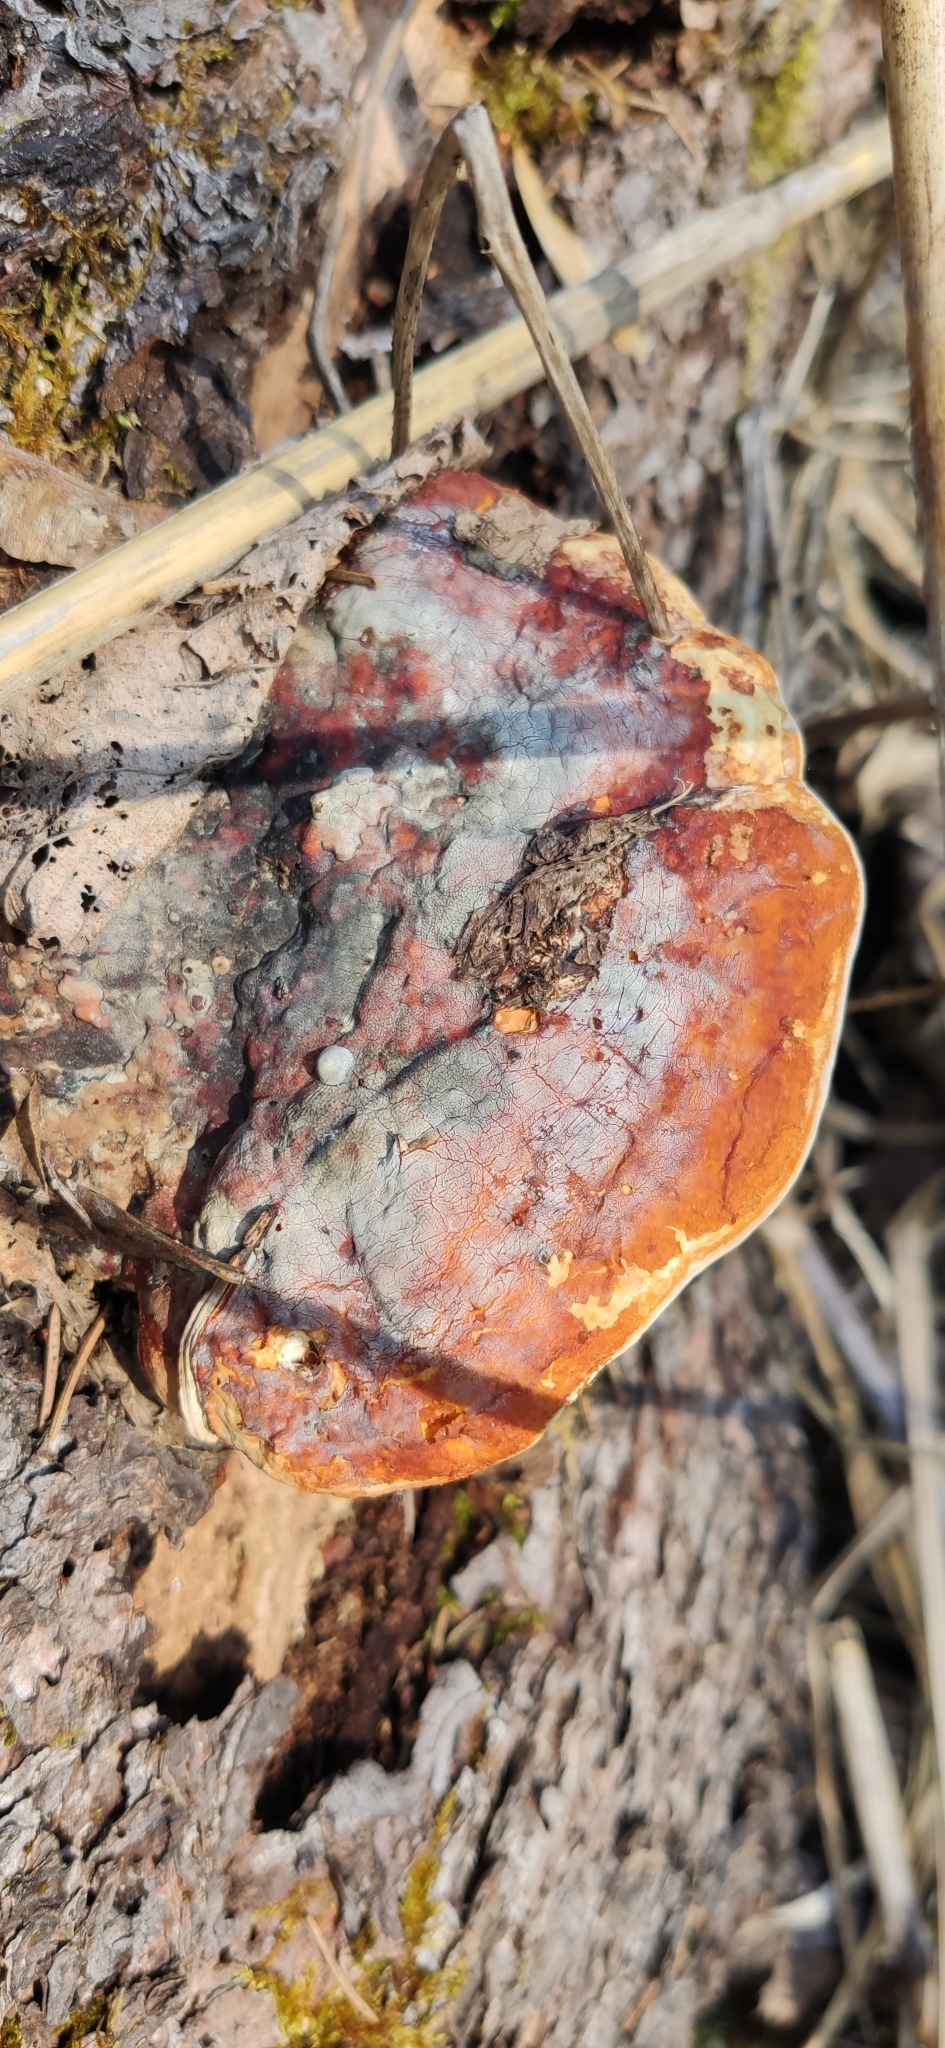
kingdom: Fungi
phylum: Basidiomycota
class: Agaricomycetes
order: Polyporales
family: Fomitopsidaceae
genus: Fomitopsis
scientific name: Fomitopsis pinicola
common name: Red-belted bracket
